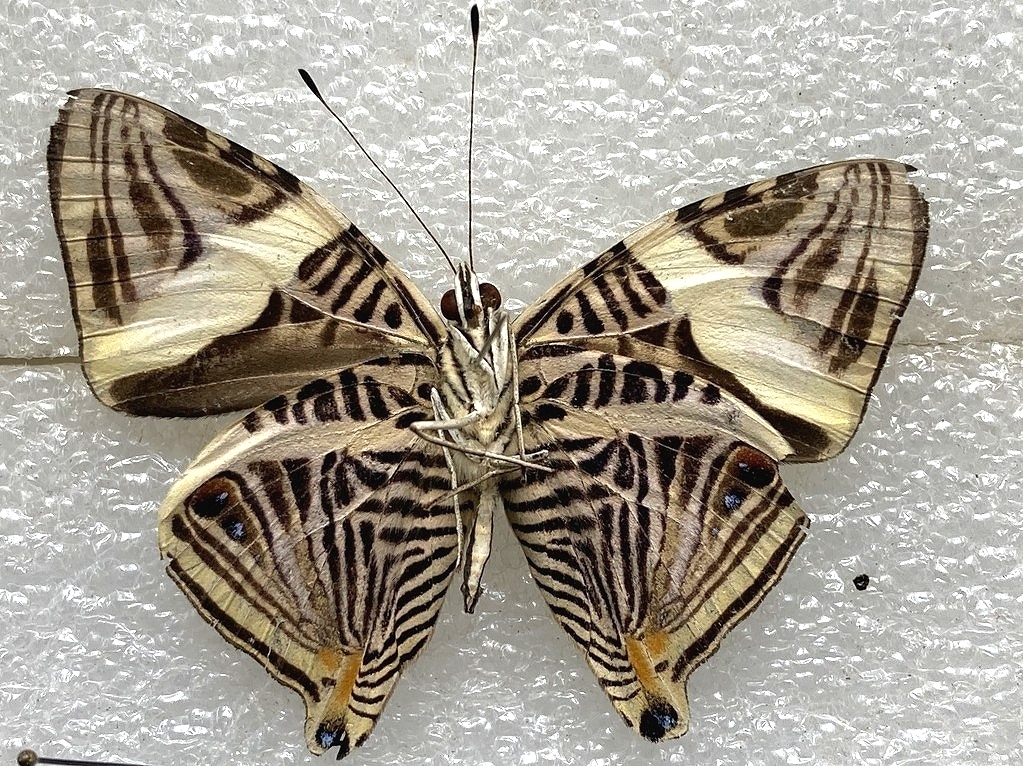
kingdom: Animalia
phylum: Arthropoda
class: Insecta
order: Lepidoptera
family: Nymphalidae
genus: Colobura
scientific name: Colobura dirce
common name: Dirce beauty
